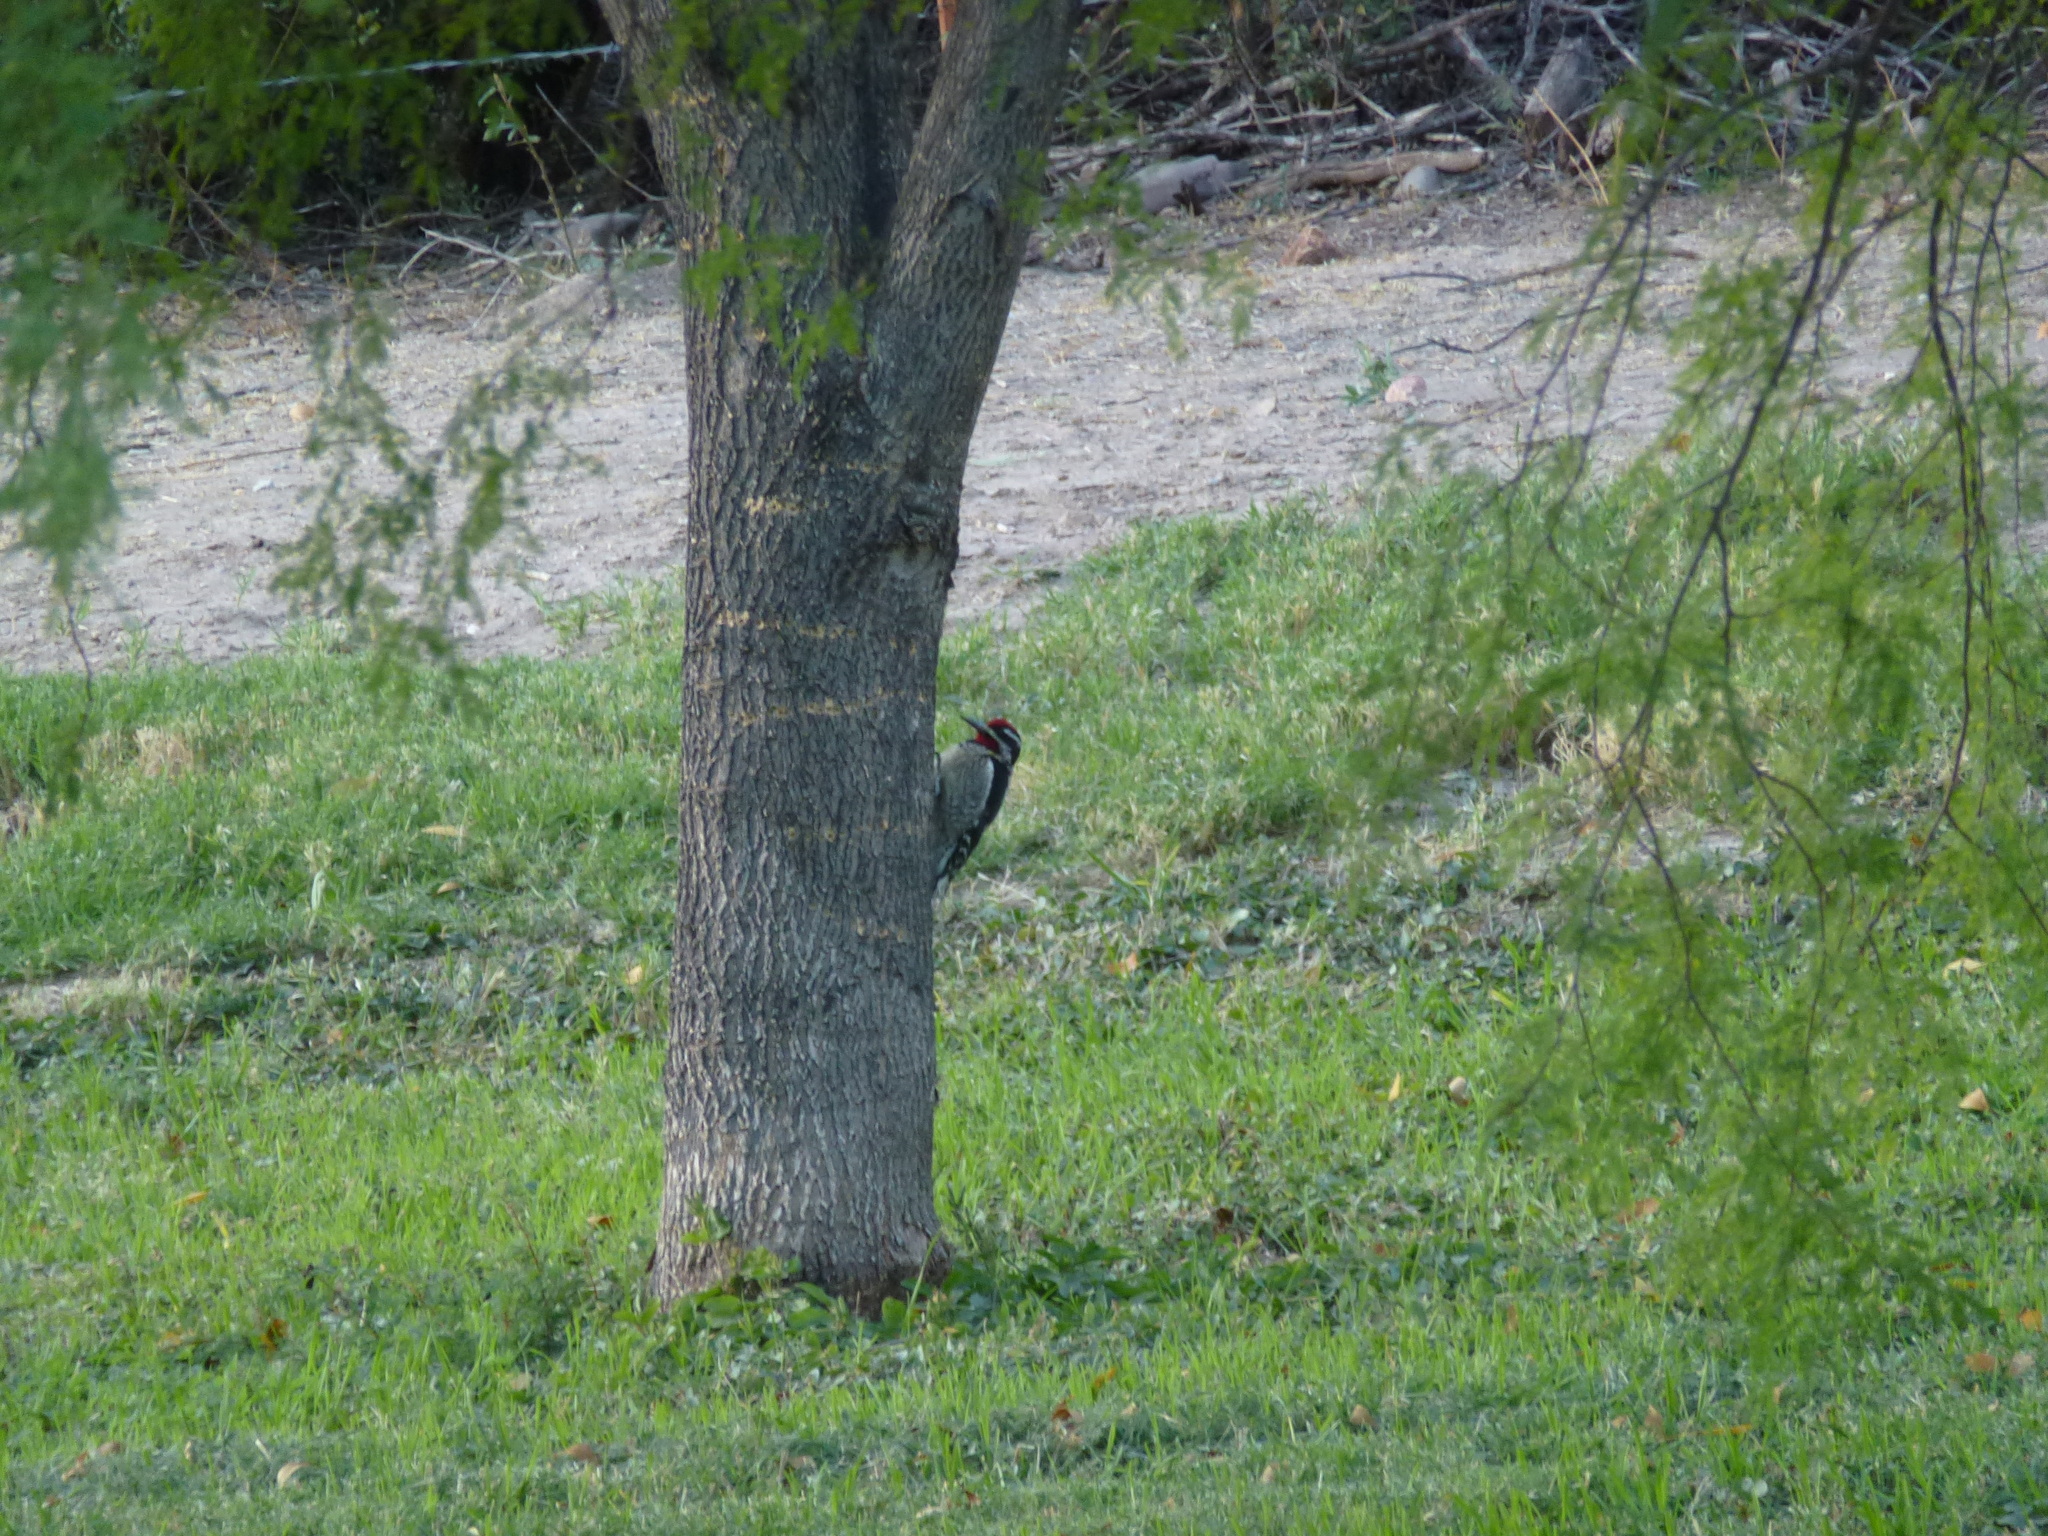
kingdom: Animalia
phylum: Chordata
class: Aves
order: Piciformes
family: Picidae
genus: Sphyrapicus
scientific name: Sphyrapicus nuchalis
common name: Red-naped sapsucker
